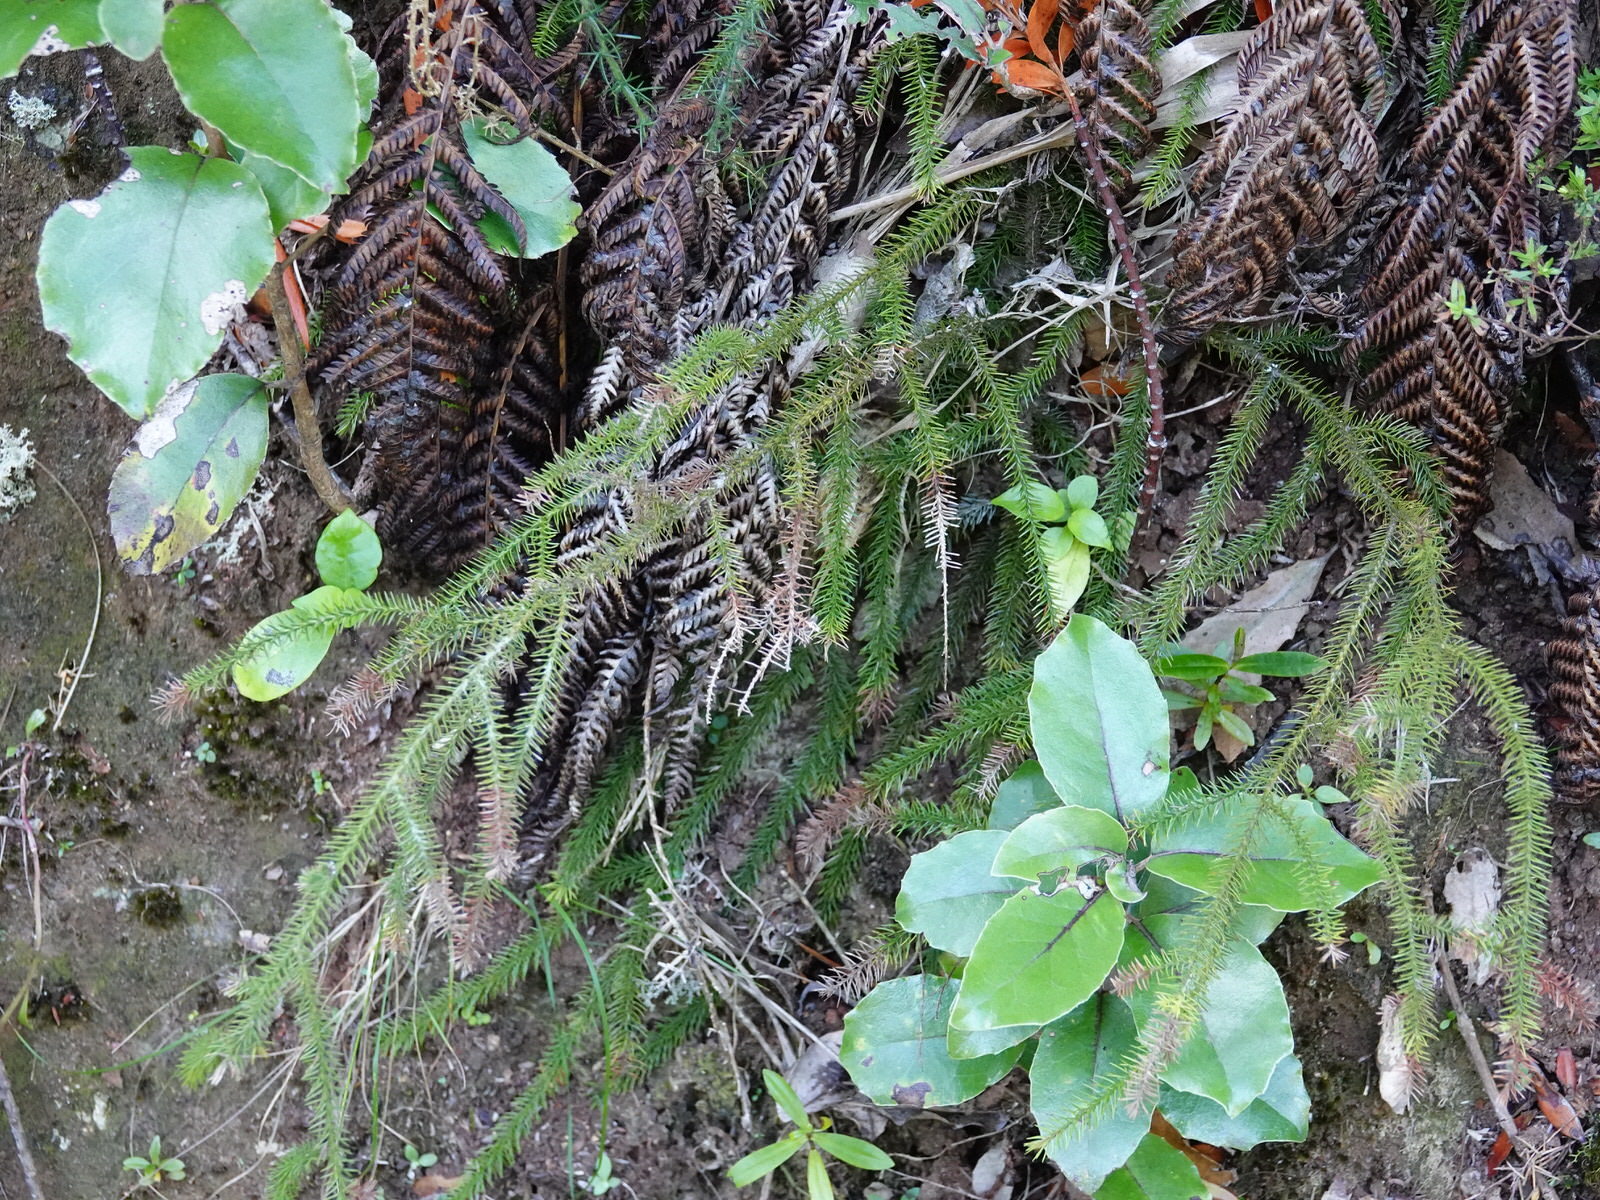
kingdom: Plantae
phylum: Tracheophyta
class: Pinopsida
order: Pinales
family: Podocarpaceae
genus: Dacrydium
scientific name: Dacrydium cupressinum
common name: Red pine
